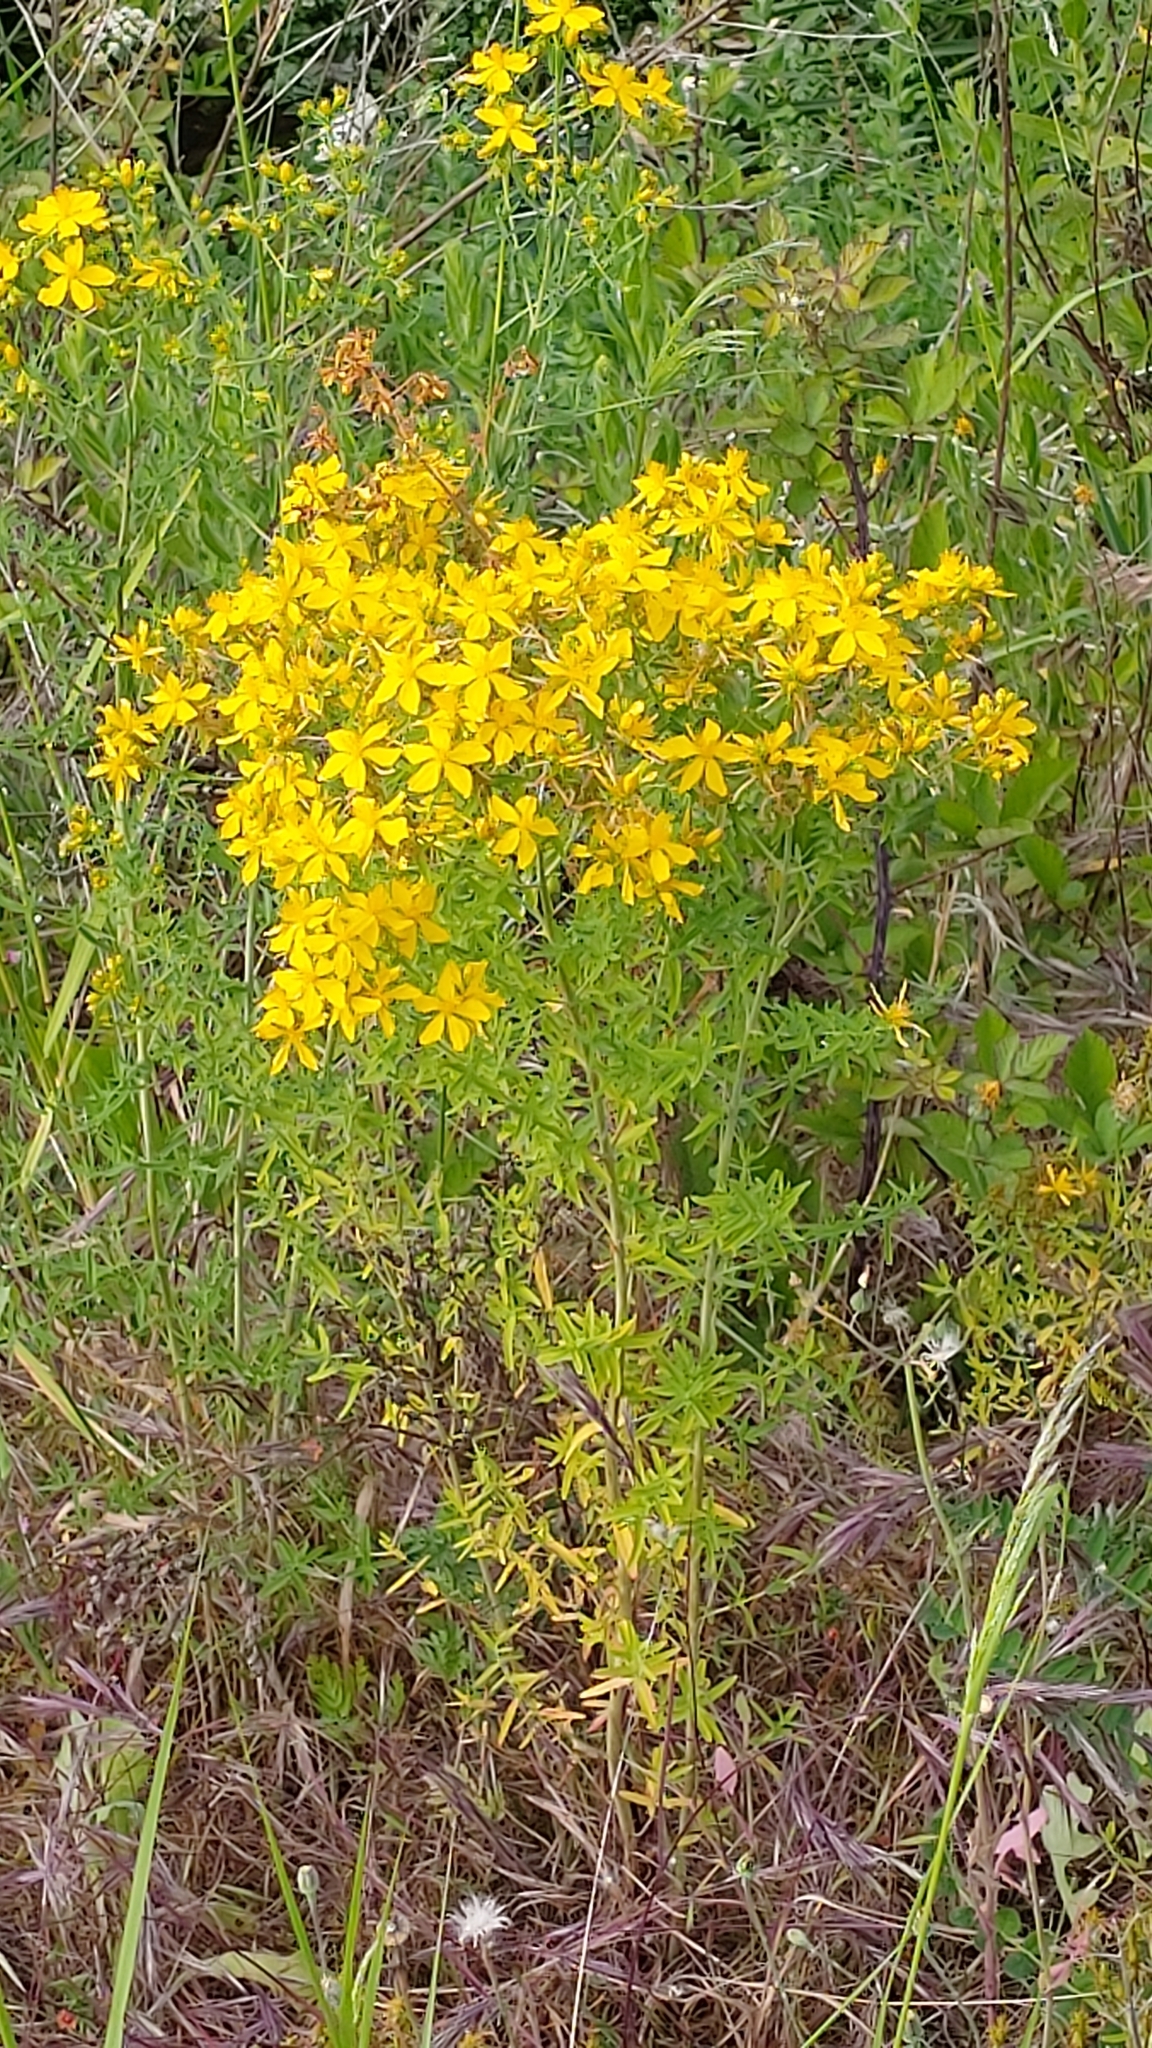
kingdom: Plantae
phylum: Tracheophyta
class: Magnoliopsida
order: Malpighiales
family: Hypericaceae
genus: Hypericum
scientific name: Hypericum perforatum
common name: Common st. johnswort
